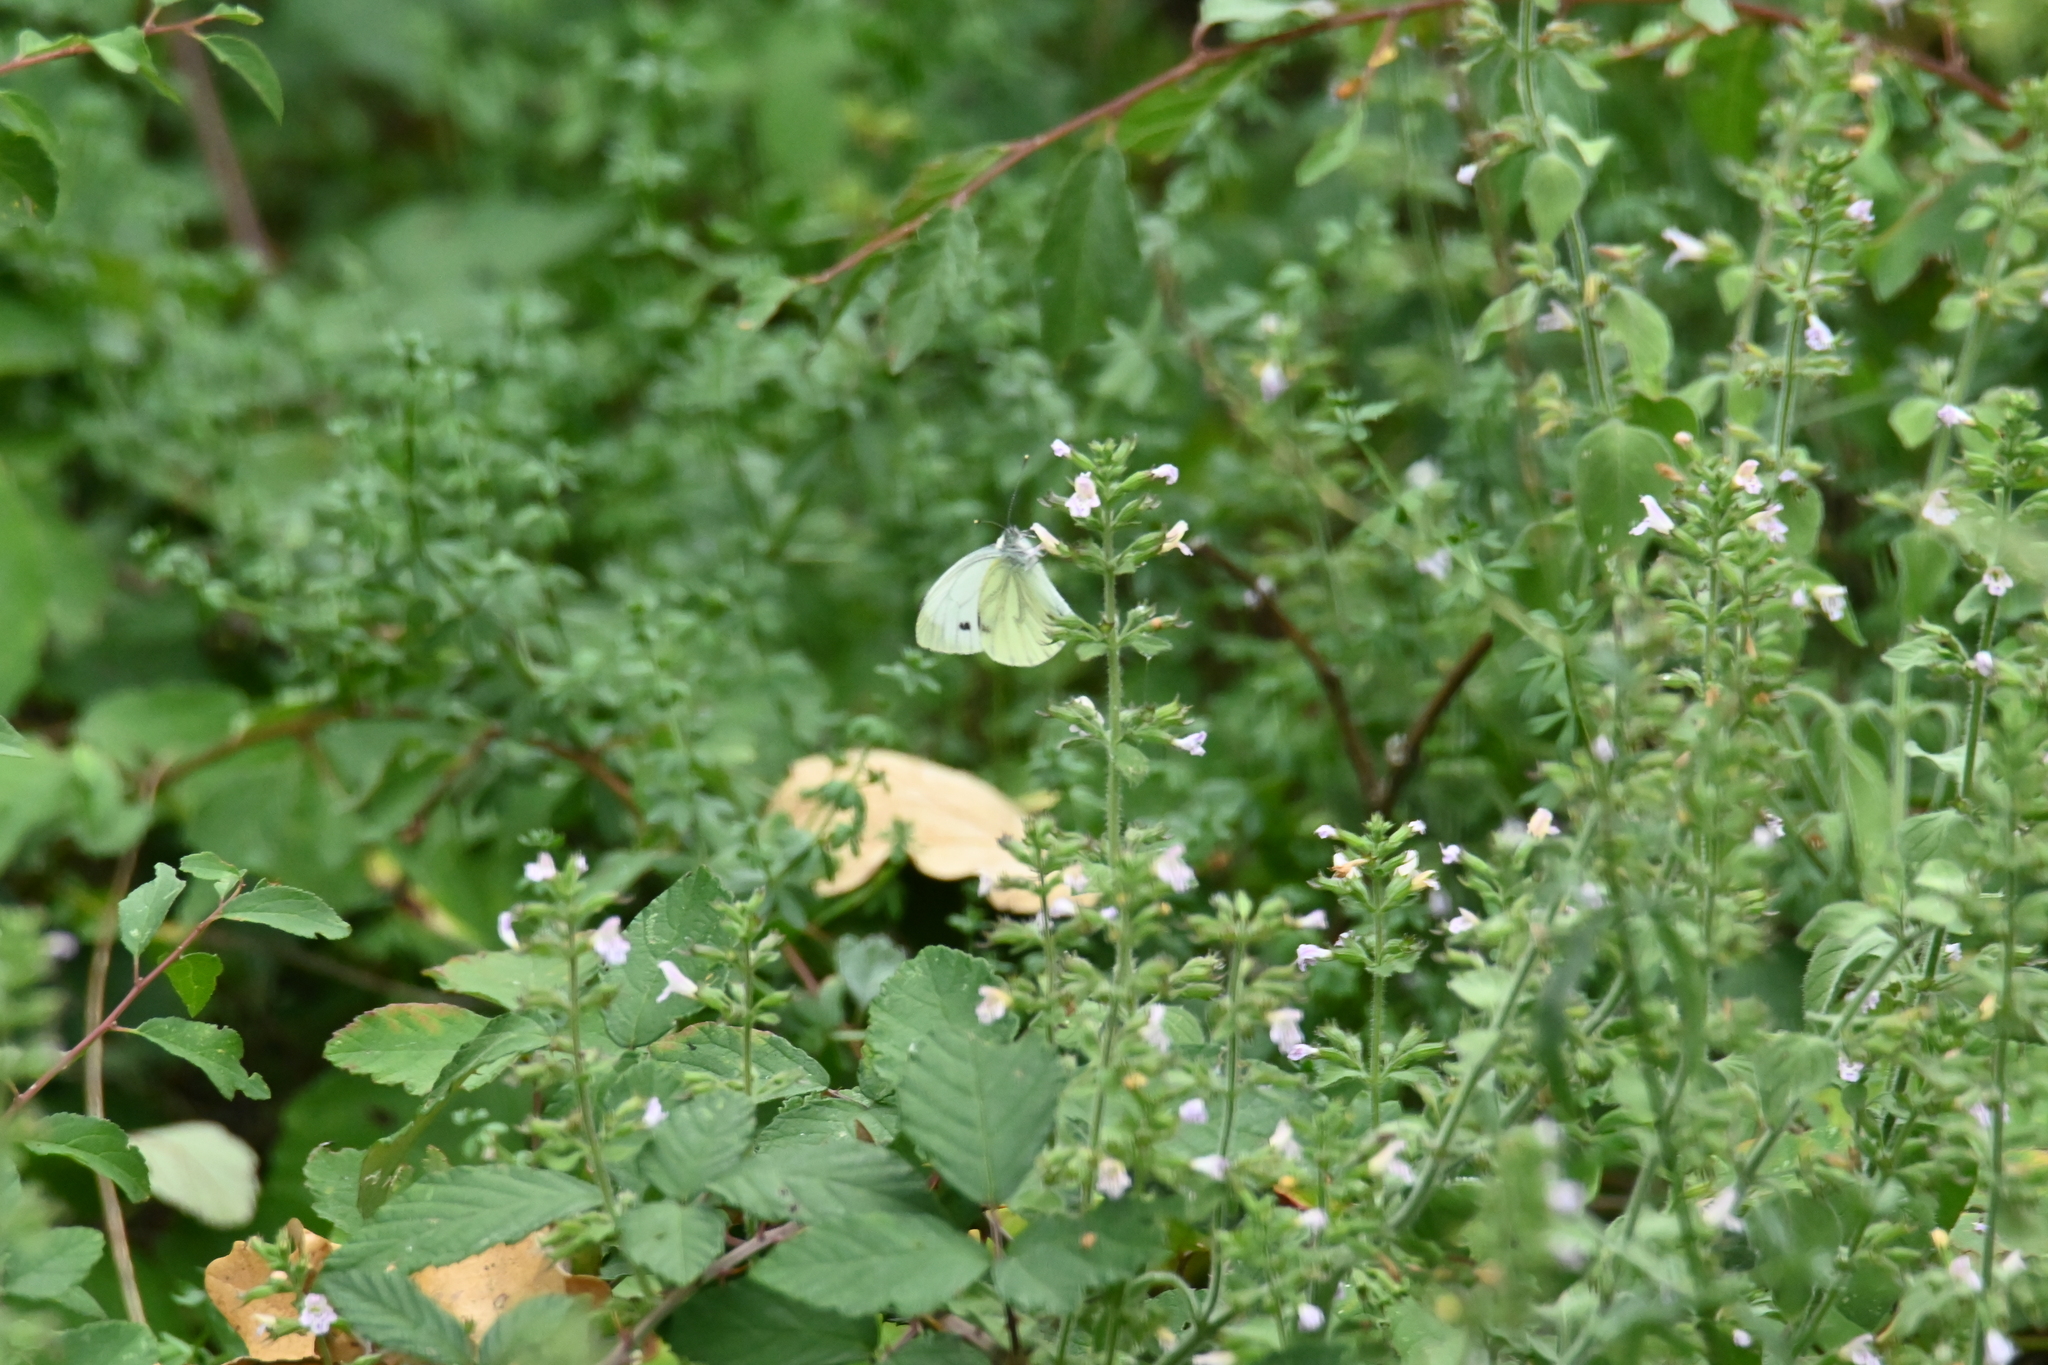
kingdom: Animalia
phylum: Arthropoda
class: Insecta
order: Lepidoptera
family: Pieridae
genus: Pieris
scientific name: Pieris napi
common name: Green-veined white
